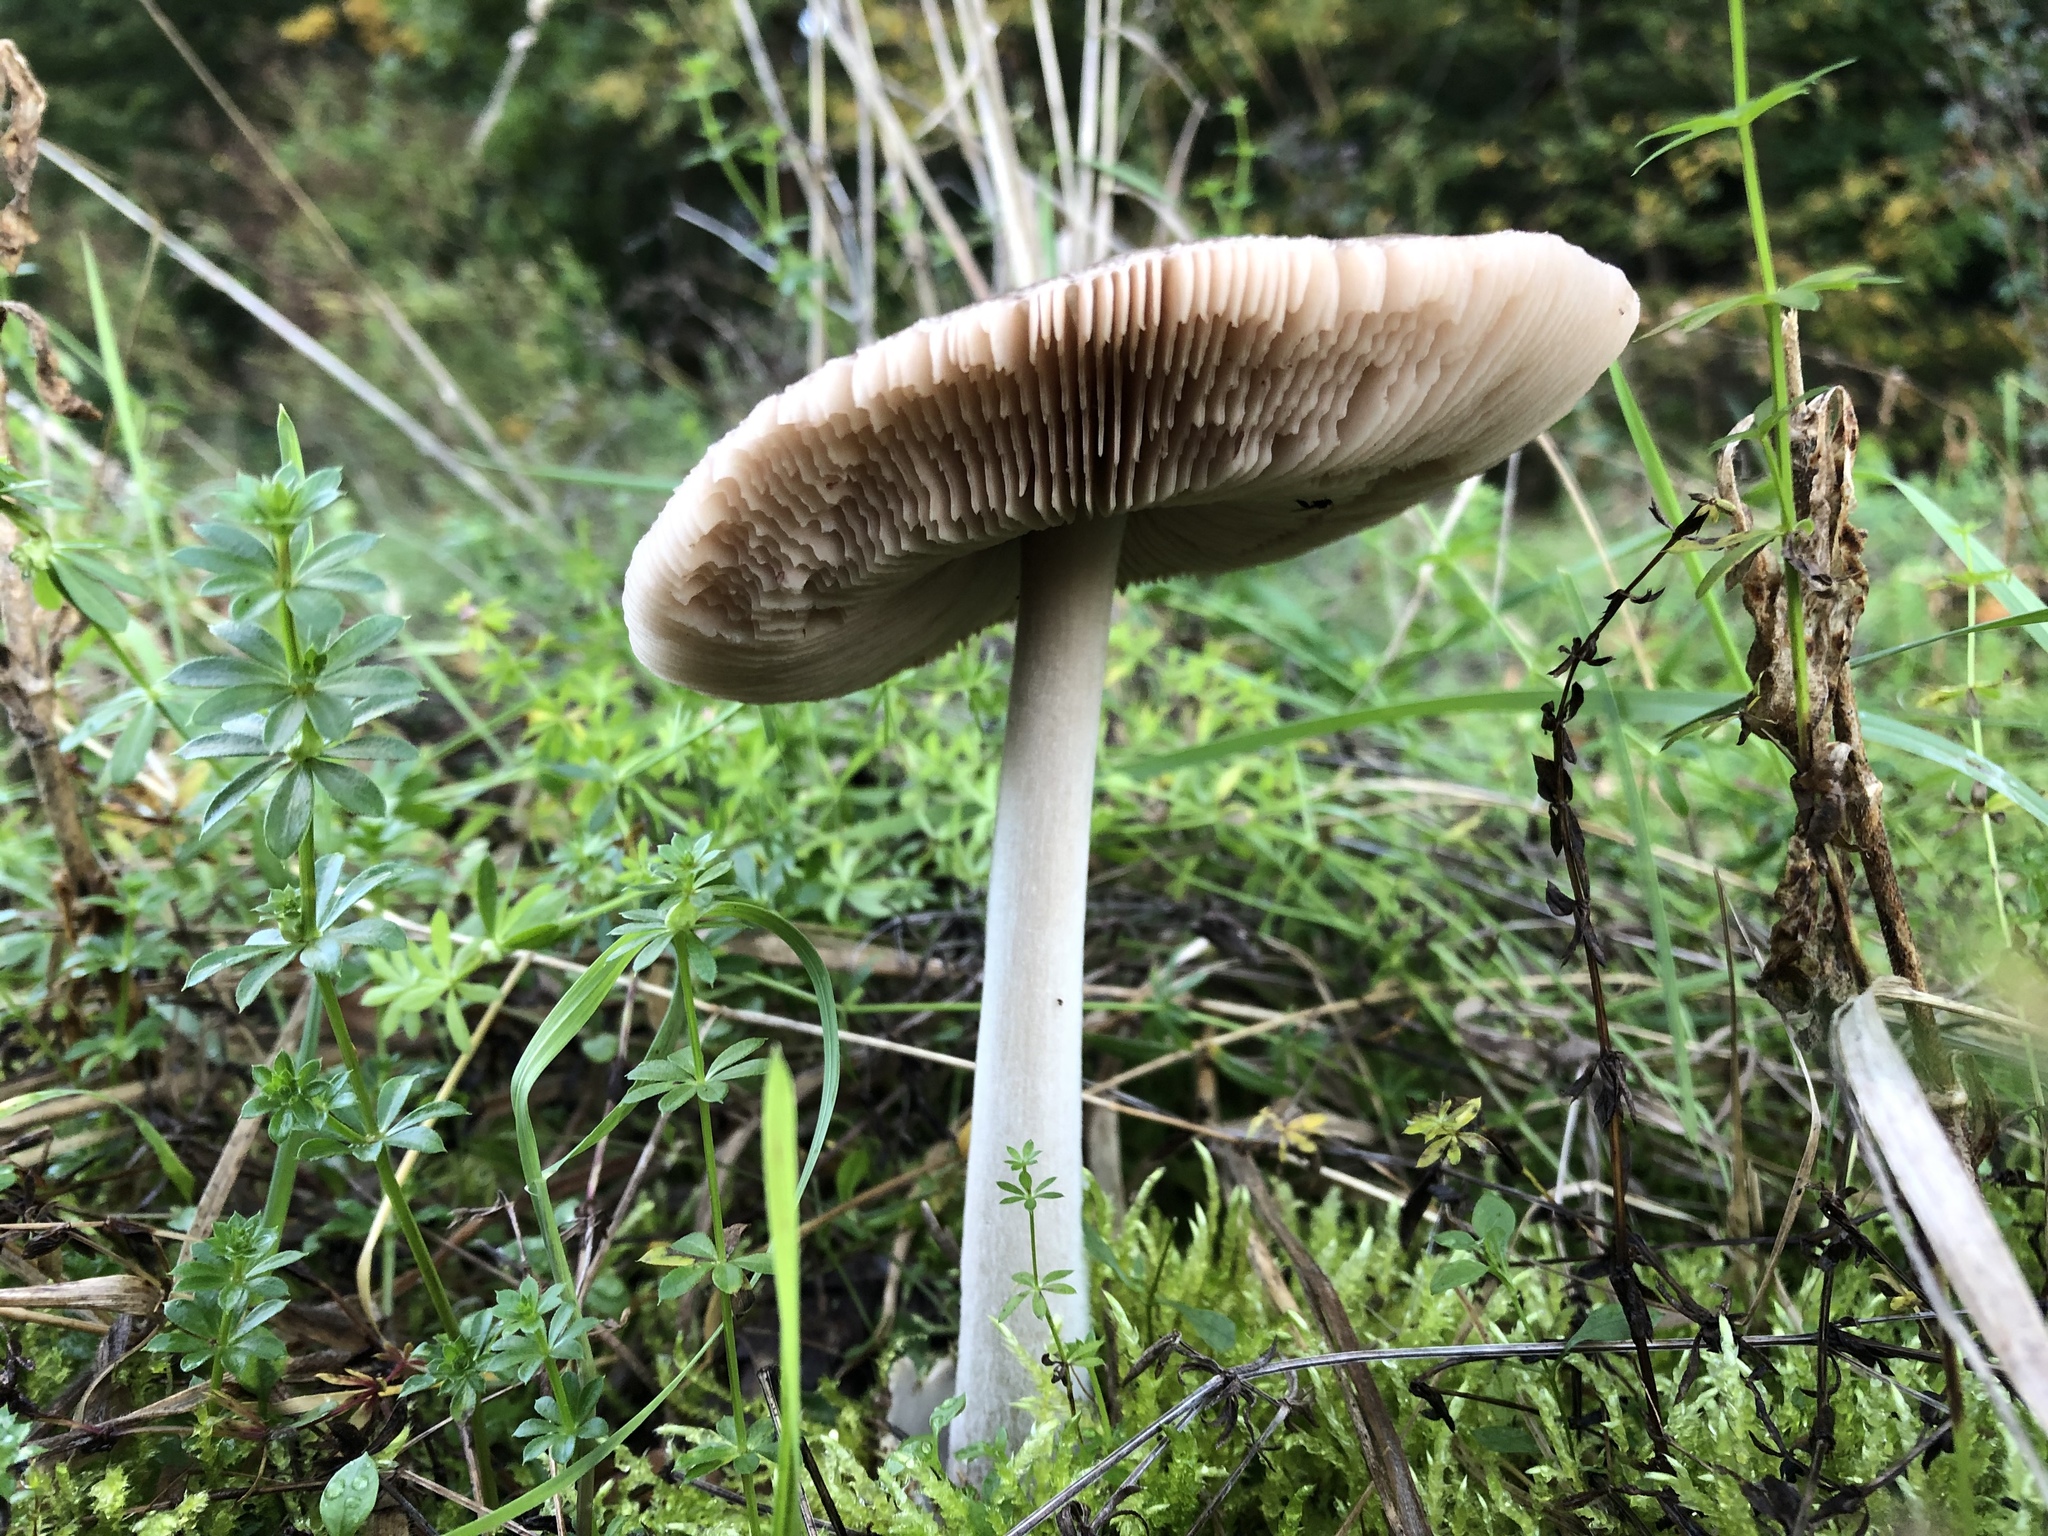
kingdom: Fungi
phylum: Basidiomycota
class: Agaricomycetes
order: Agaricales
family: Pluteaceae
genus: Volvopluteus
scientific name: Volvopluteus gloiocephalus
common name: Stubble rosegill
